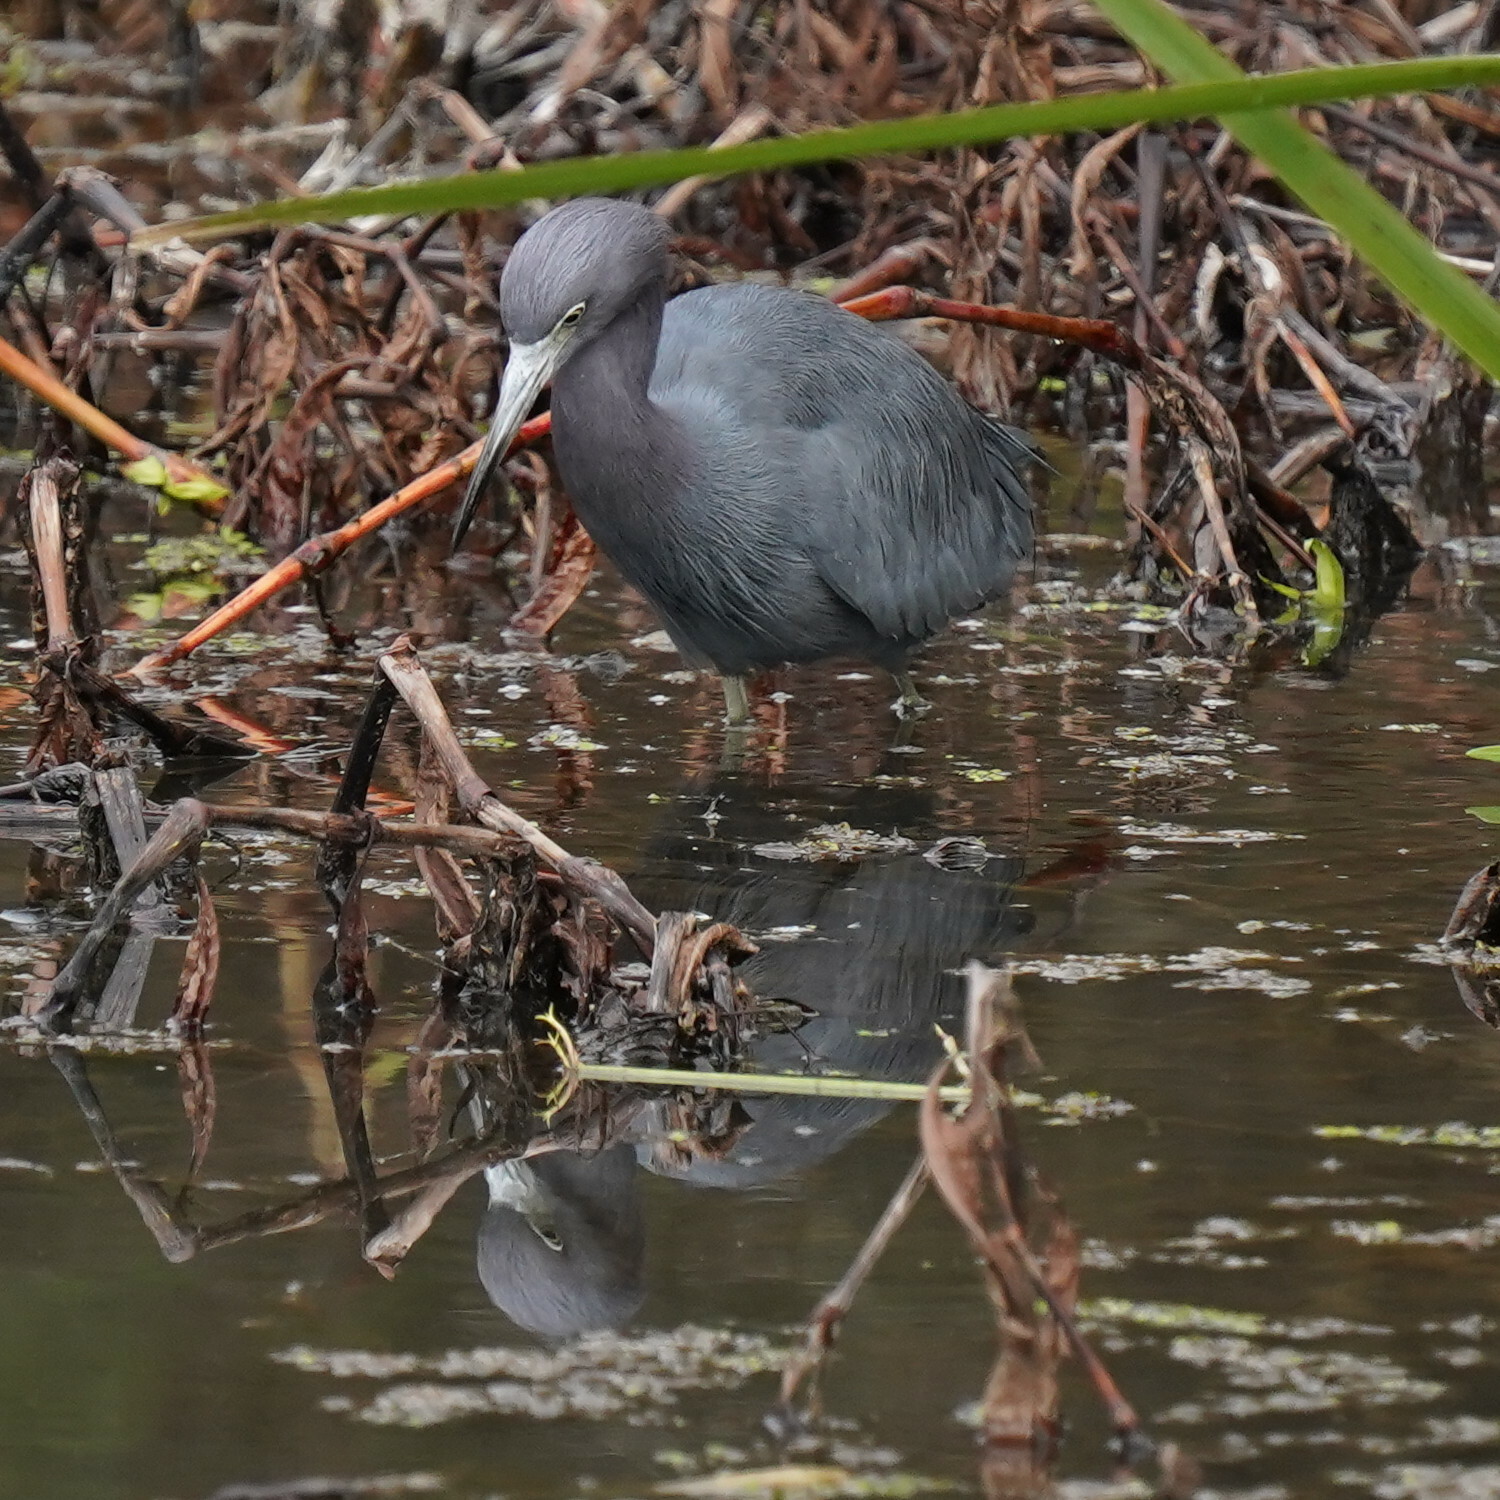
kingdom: Animalia
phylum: Chordata
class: Aves
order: Pelecaniformes
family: Ardeidae
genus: Egretta
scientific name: Egretta caerulea
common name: Little blue heron
